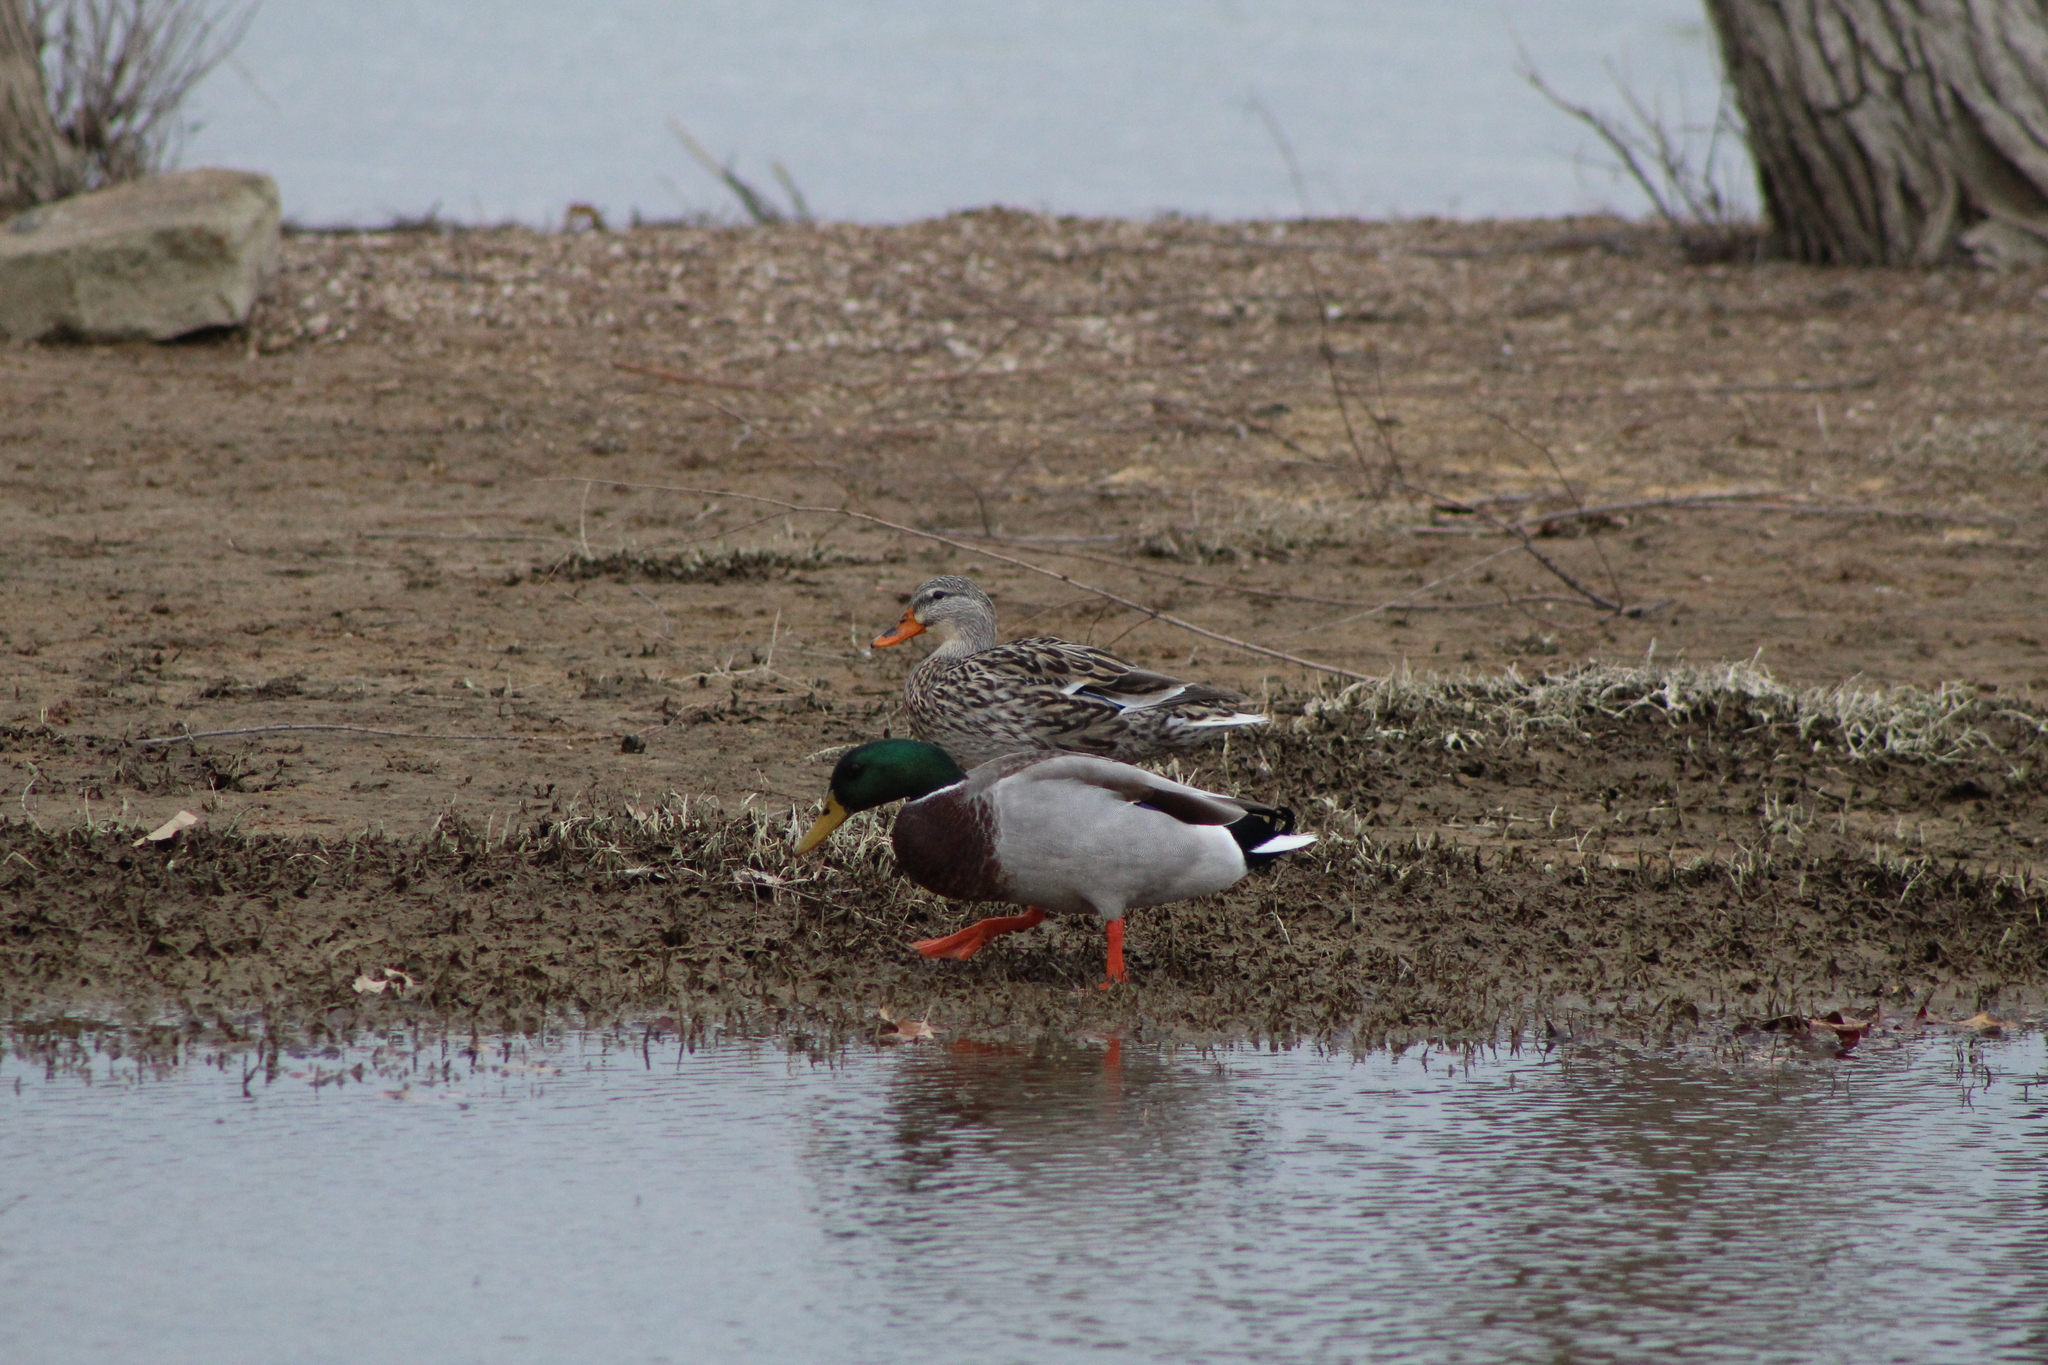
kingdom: Animalia
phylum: Chordata
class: Aves
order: Anseriformes
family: Anatidae
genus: Anas
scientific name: Anas platyrhynchos
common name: Mallard
